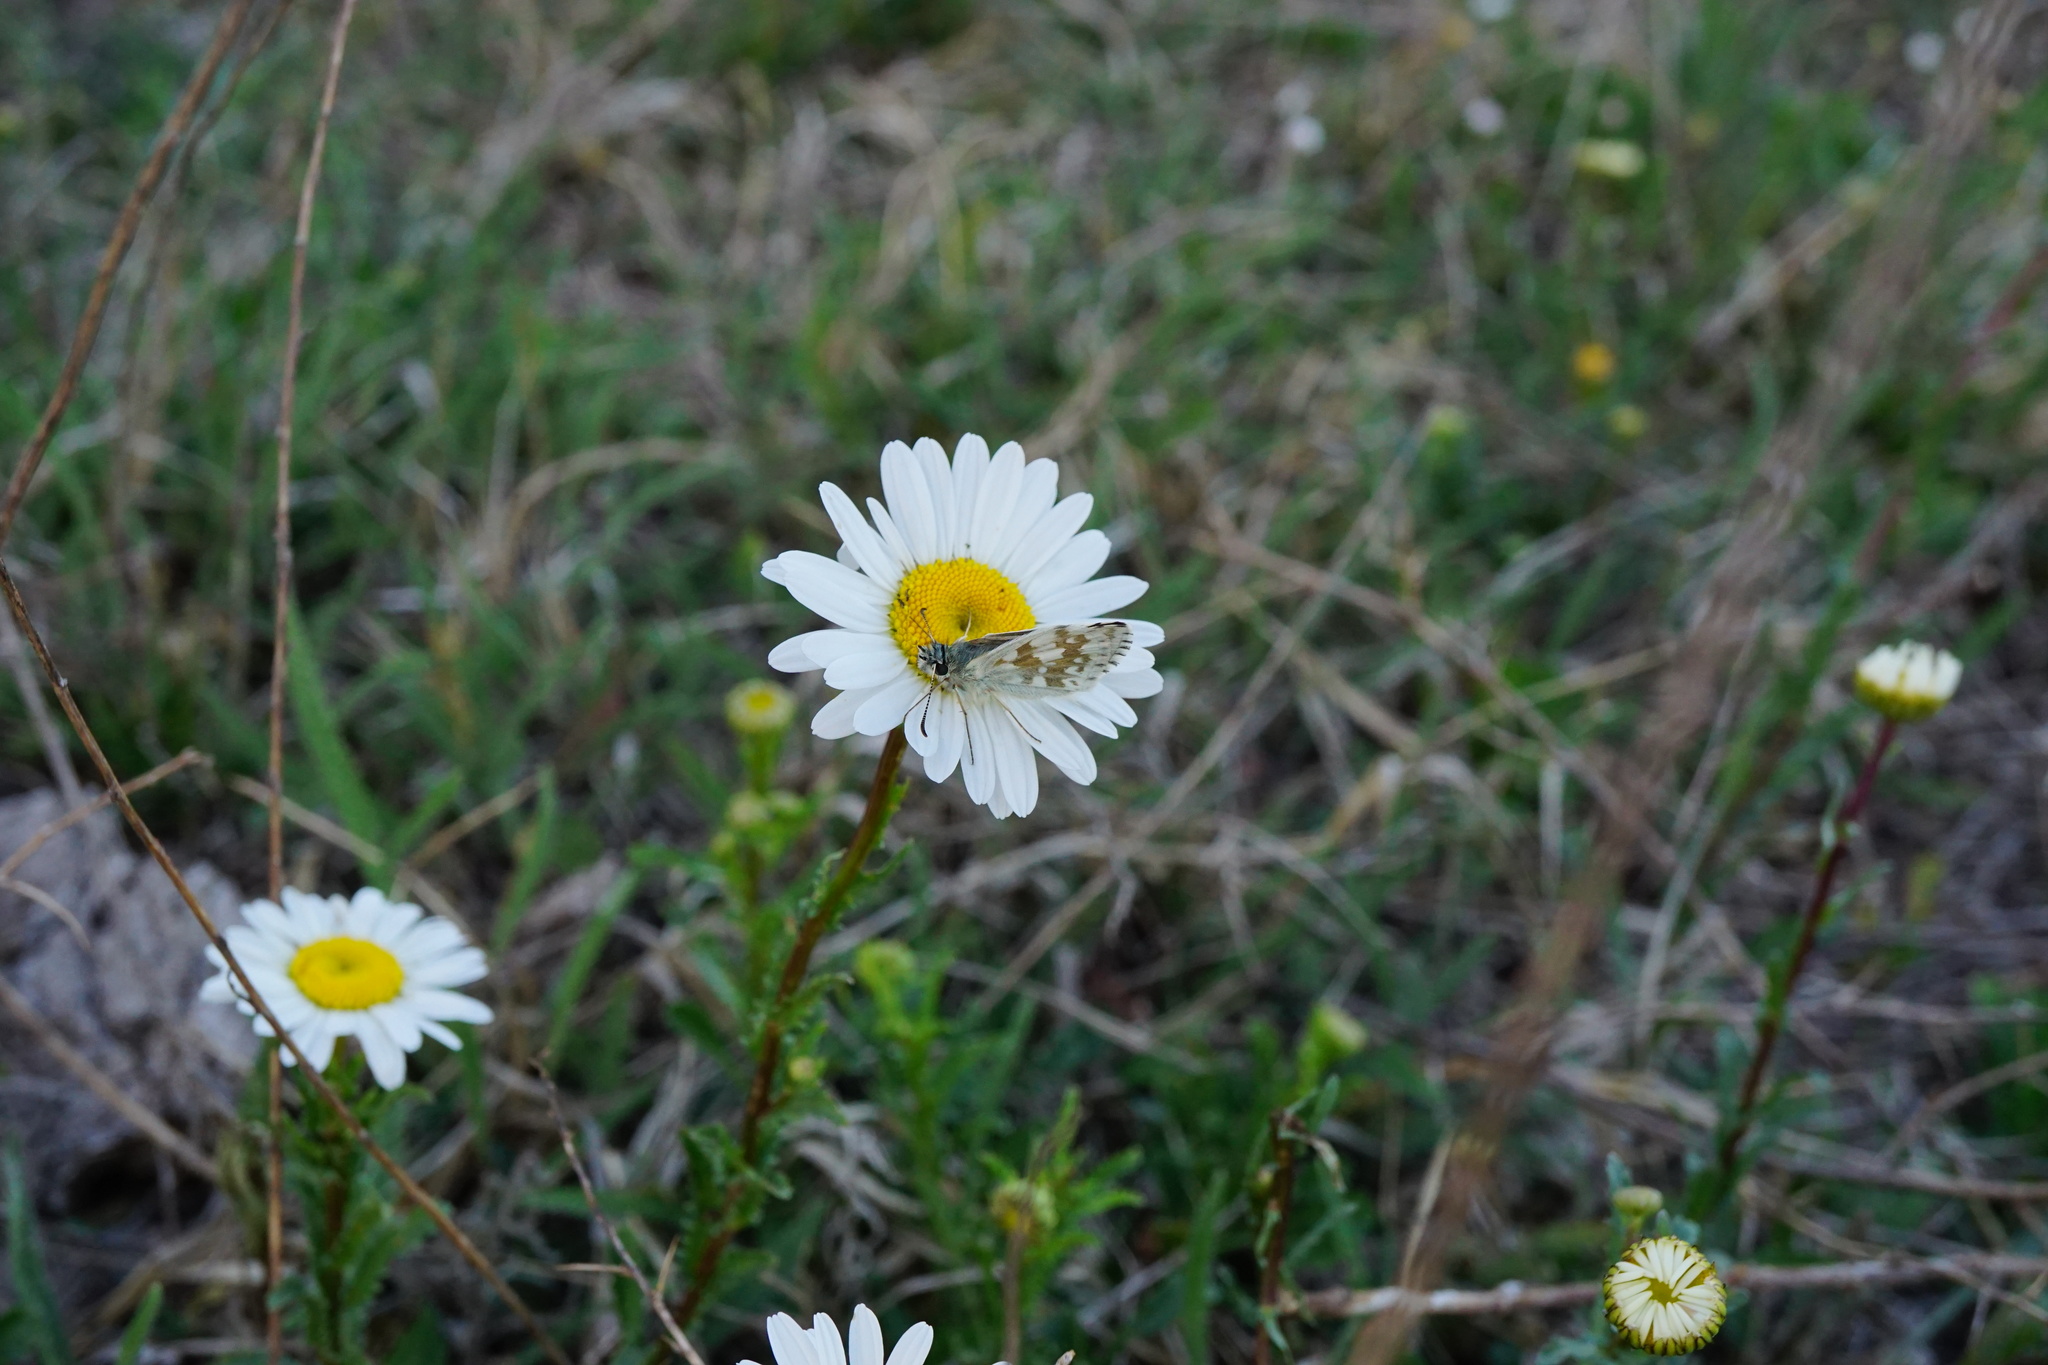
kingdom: Animalia
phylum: Arthropoda
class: Insecta
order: Lepidoptera
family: Hesperiidae
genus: Pyrgus
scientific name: Pyrgus fritillarius
